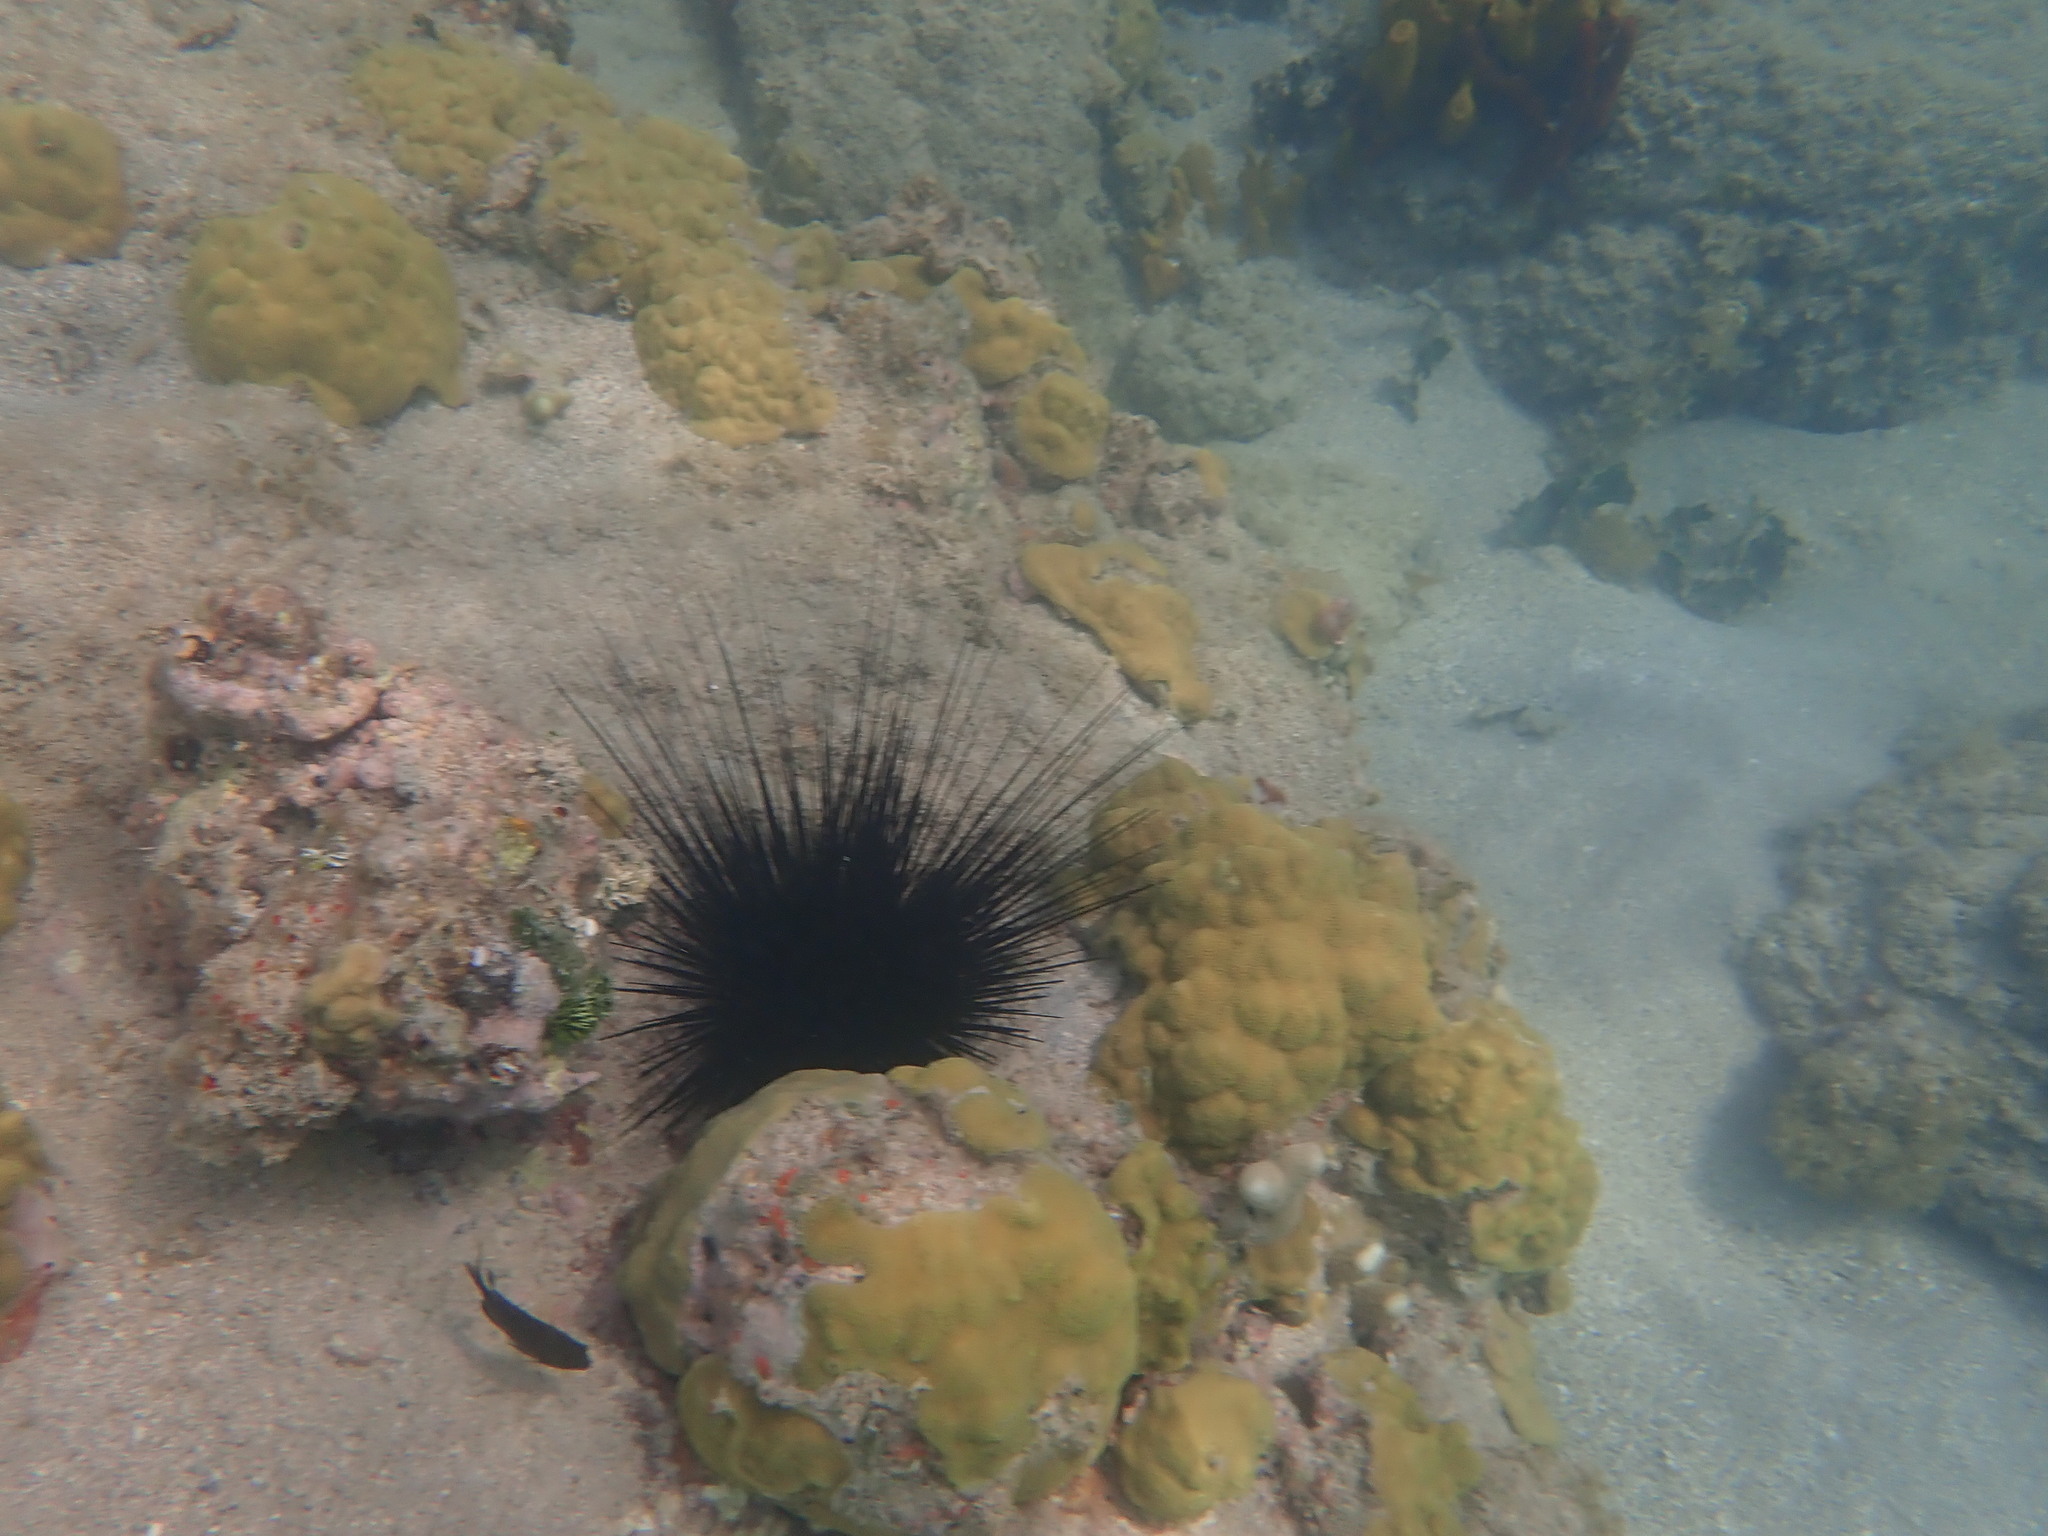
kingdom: Animalia
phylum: Echinodermata
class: Echinoidea
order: Diadematoida
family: Diadematidae
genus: Diadema
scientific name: Diadema antillarum
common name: Spiny urchin
